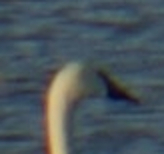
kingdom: Animalia
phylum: Chordata
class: Aves
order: Anseriformes
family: Anatidae
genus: Cygnus
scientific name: Cygnus buccinator
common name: Trumpeter swan
